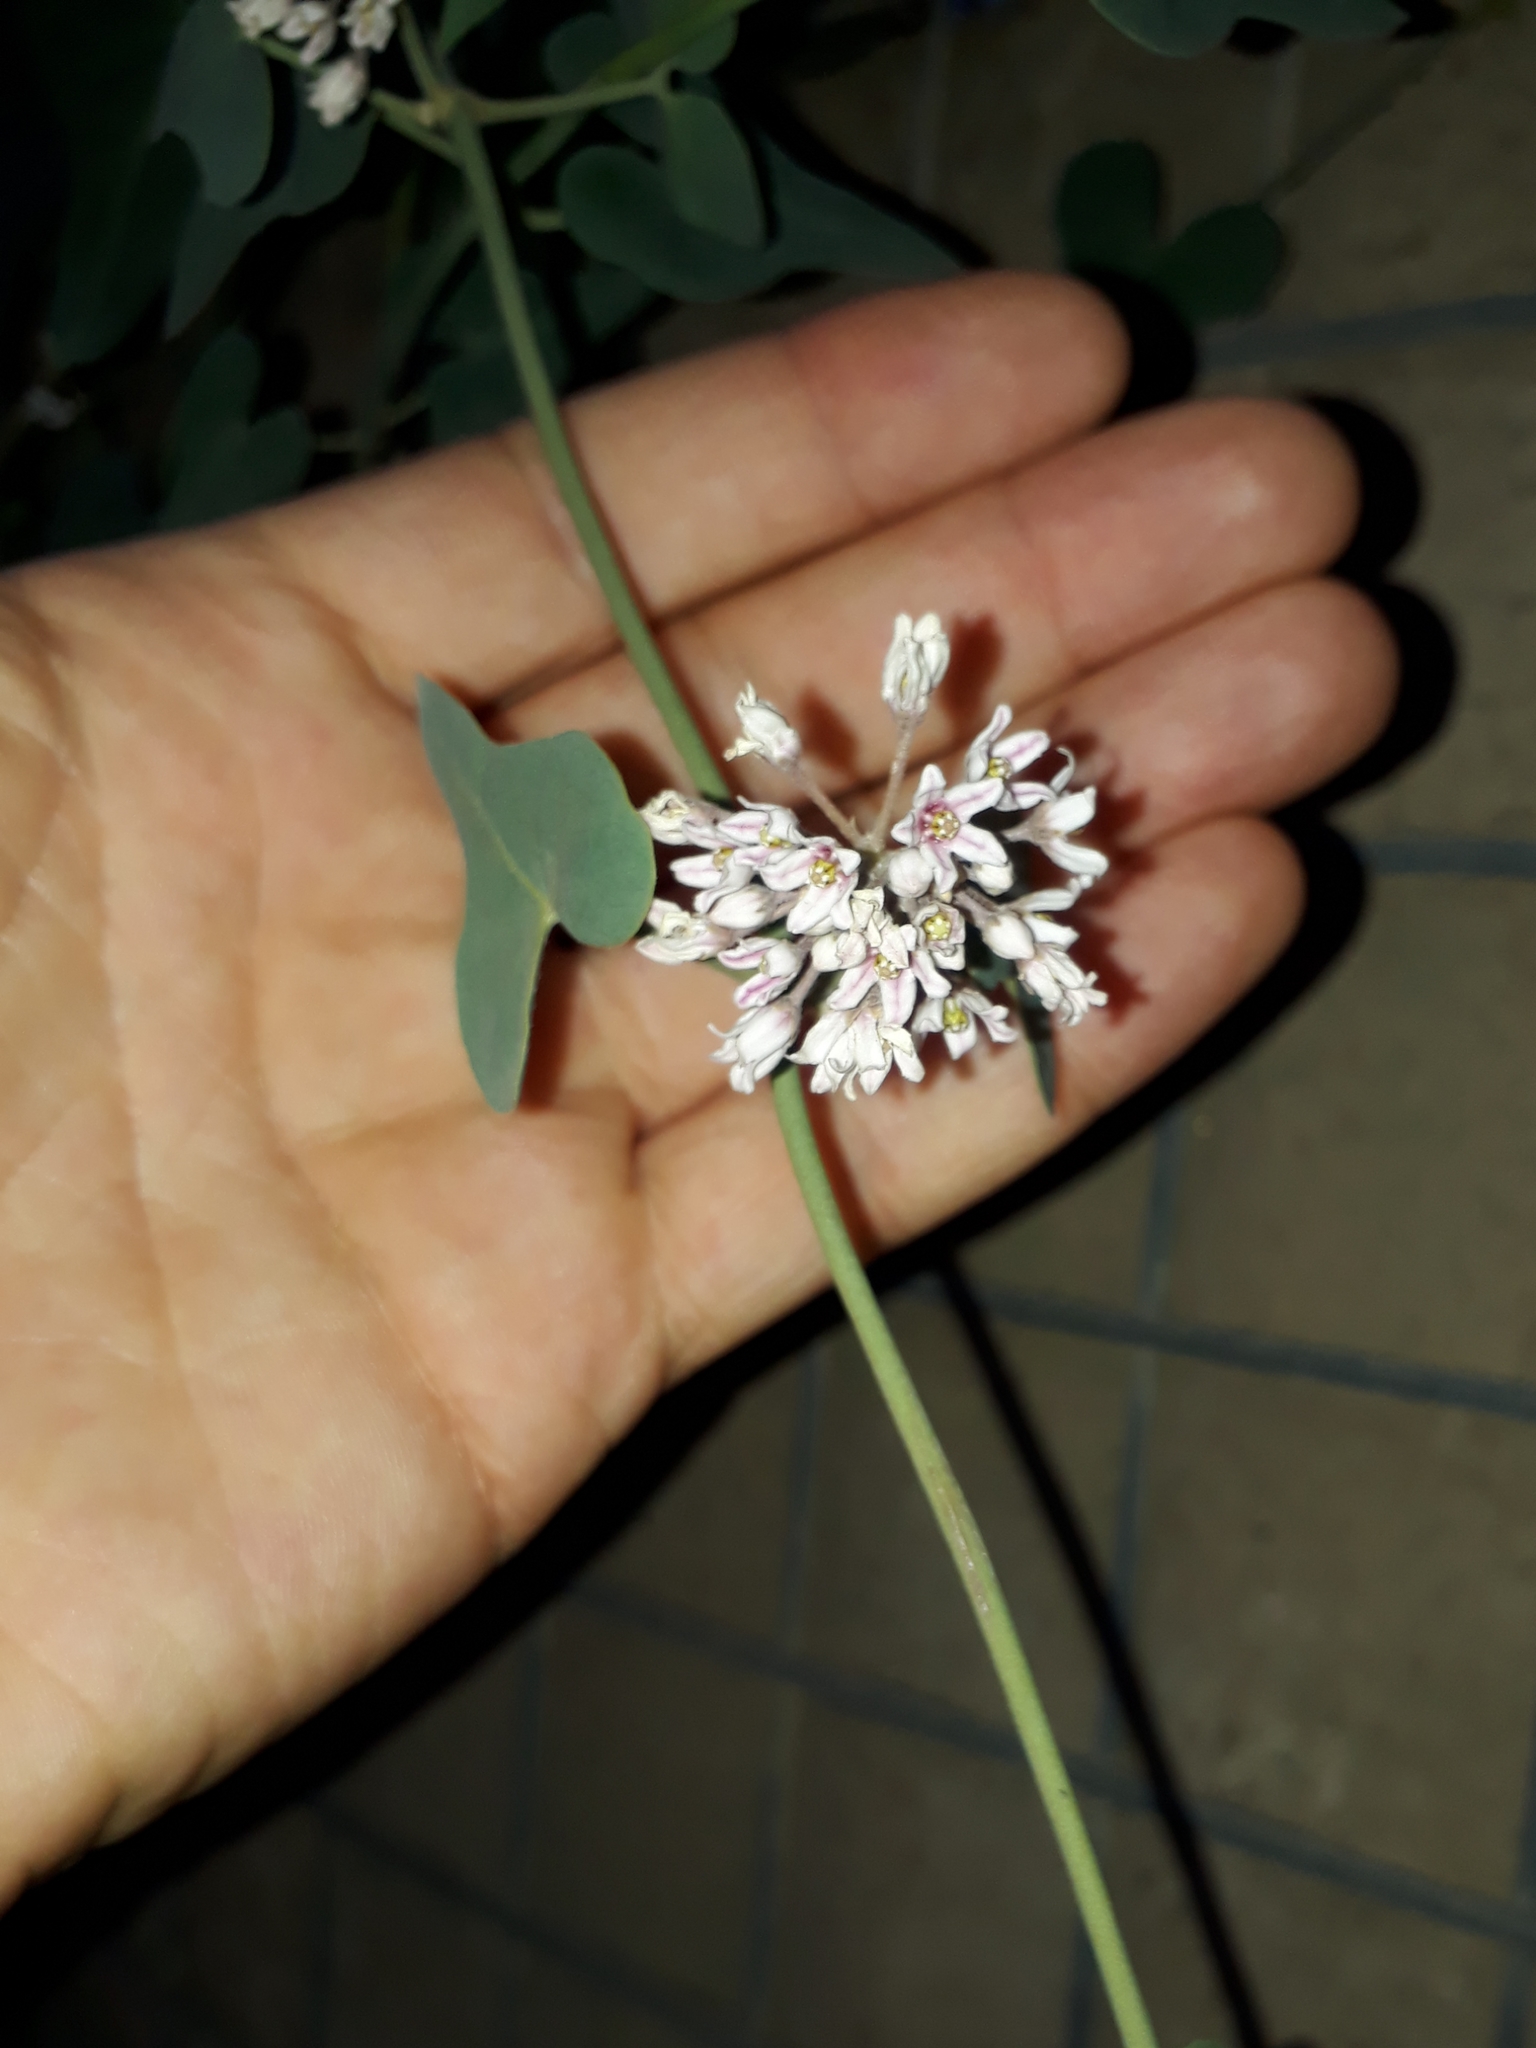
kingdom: Plantae
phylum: Tracheophyta
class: Magnoliopsida
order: Gentianales
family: Apocynaceae
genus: Cynanchum
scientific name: Cynanchum acutum
